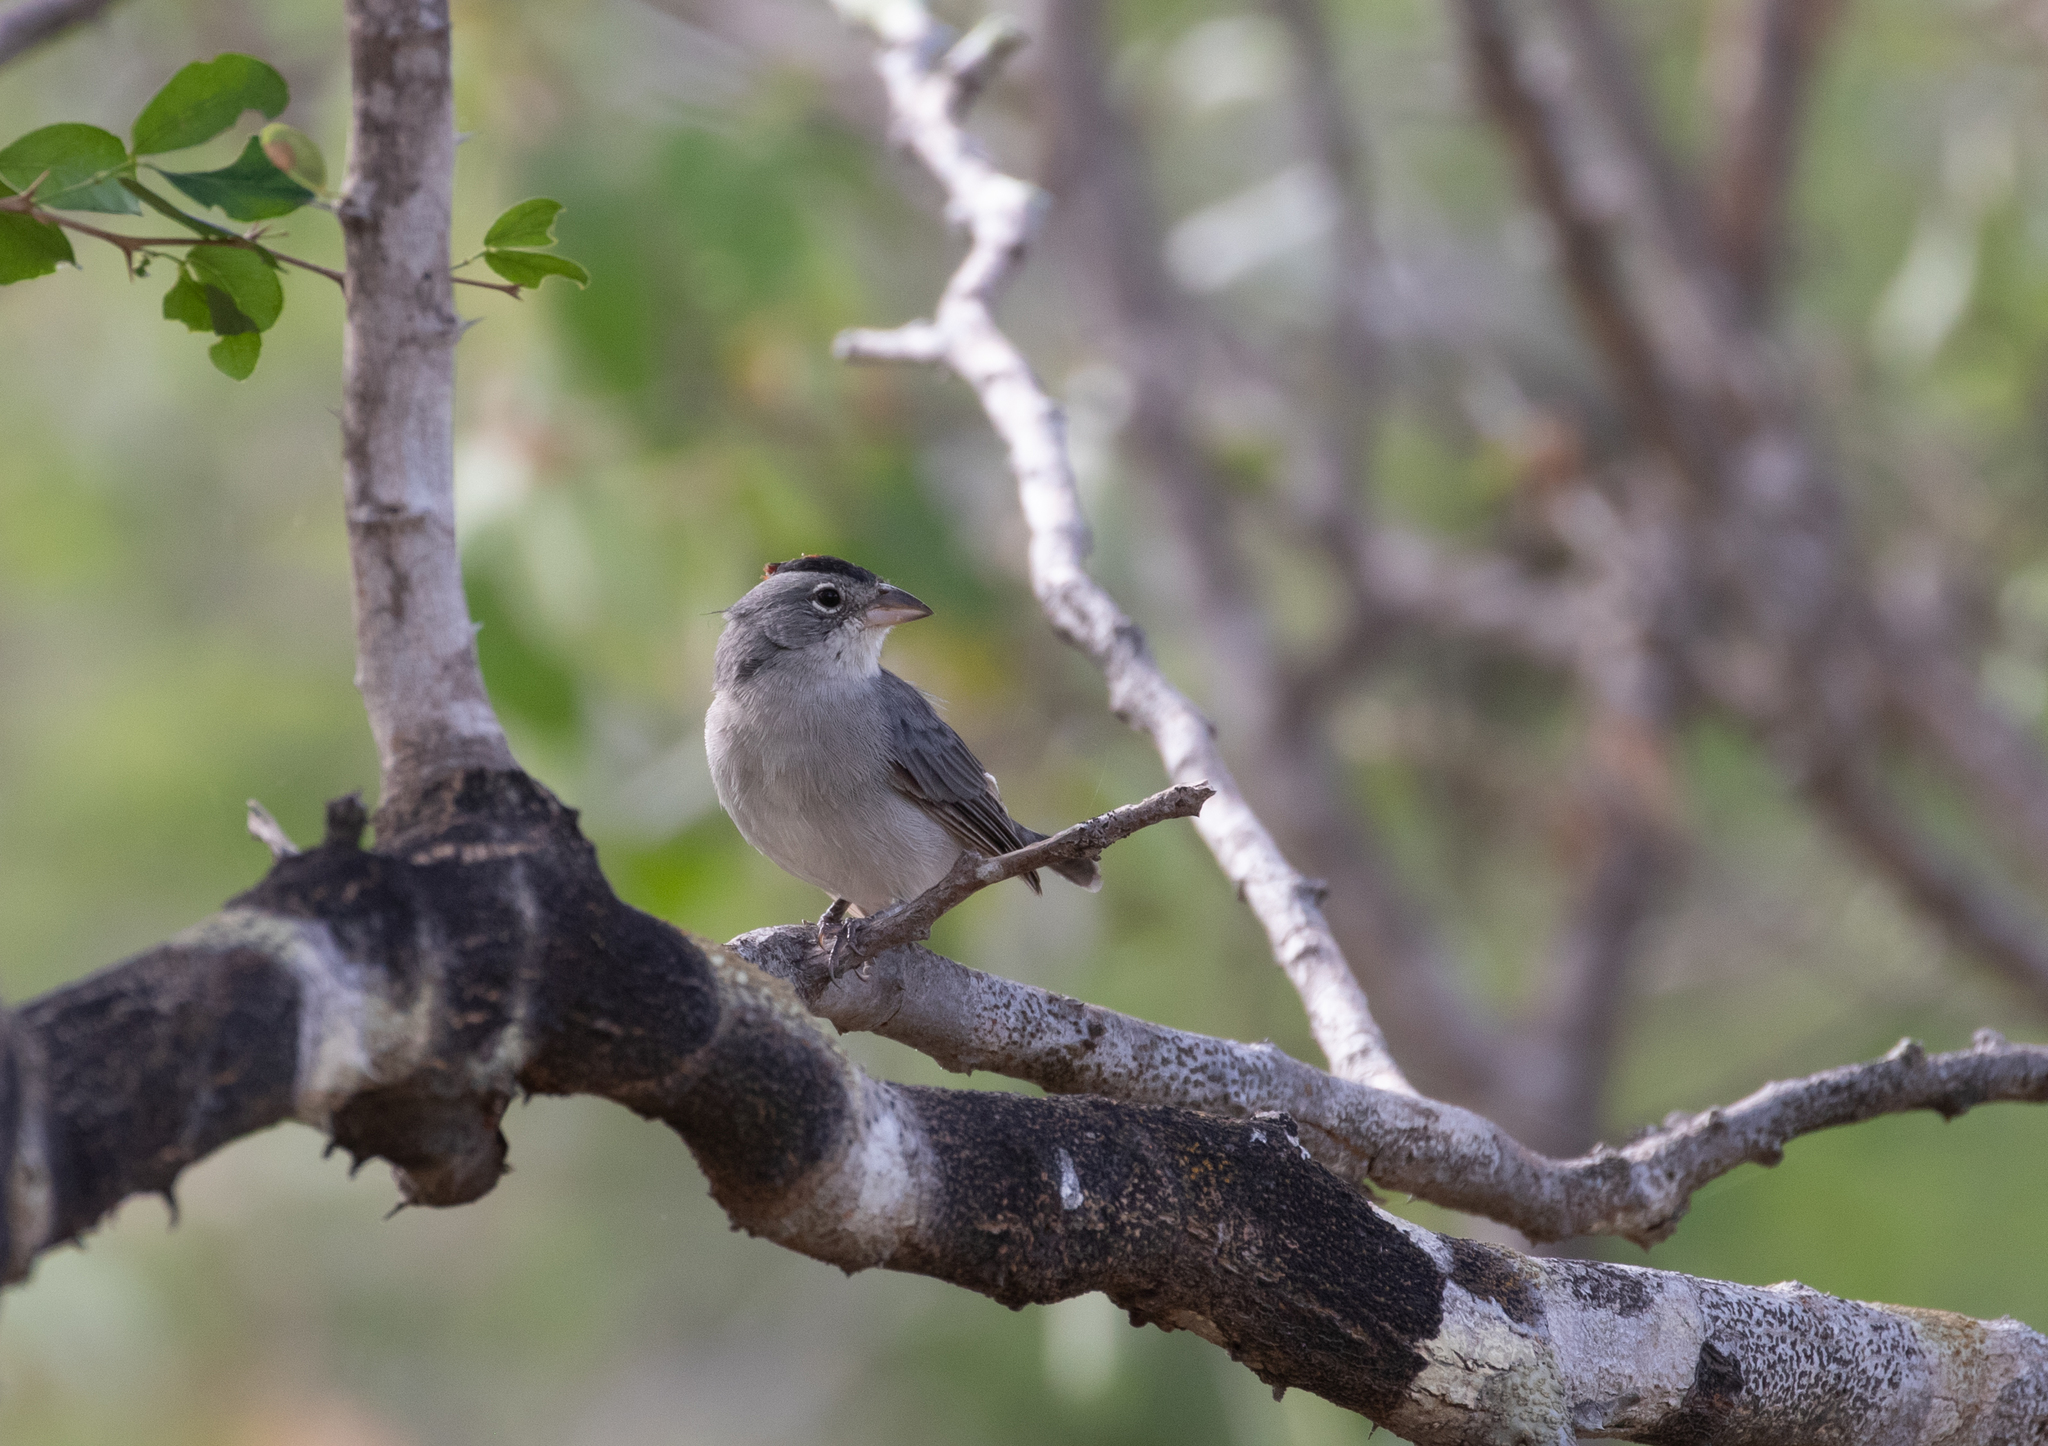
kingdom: Animalia
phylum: Chordata
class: Aves
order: Passeriformes
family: Thraupidae
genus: Coryphospingus
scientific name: Coryphospingus pileatus
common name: Grey pileated finch
